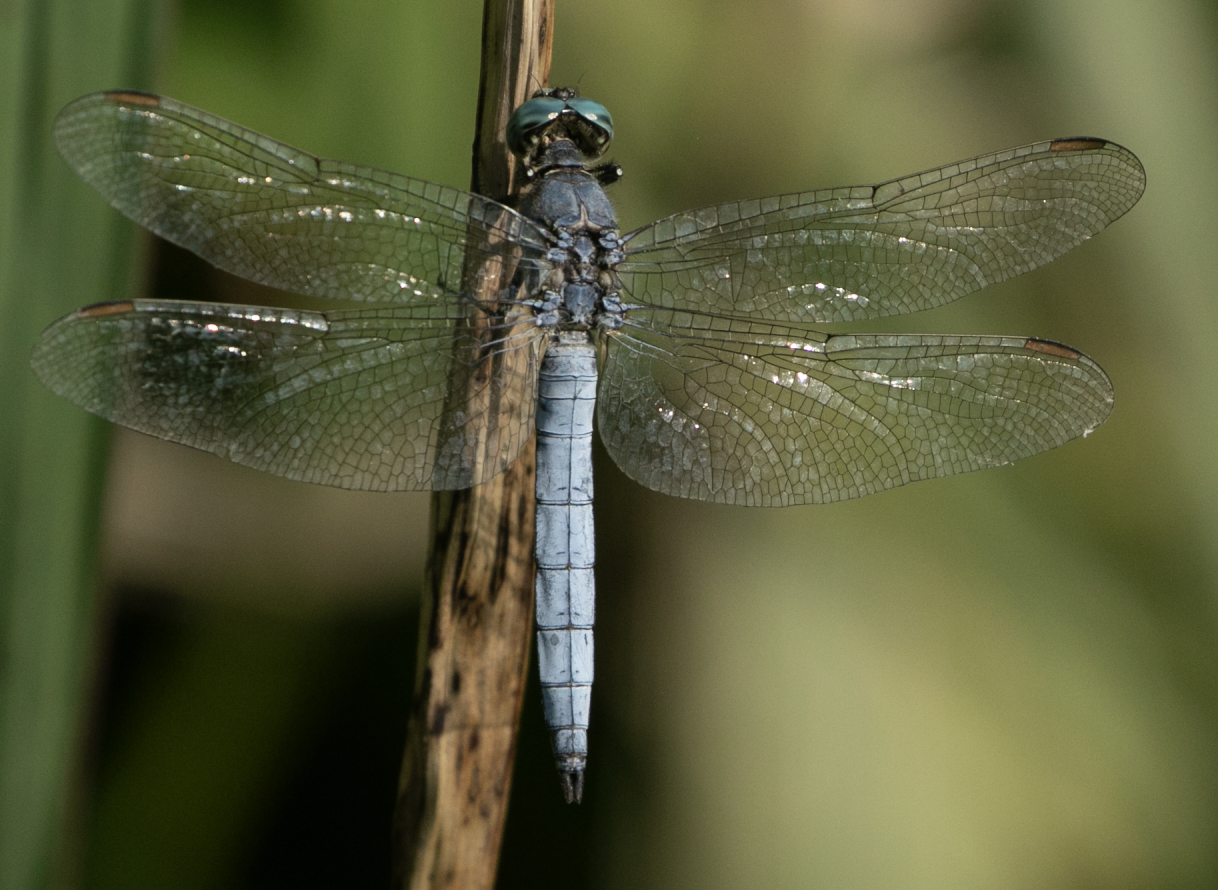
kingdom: Animalia
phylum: Arthropoda
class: Insecta
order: Odonata
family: Libellulidae
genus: Orthetrum
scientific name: Orthetrum coerulescens
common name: Keeled skimmer
